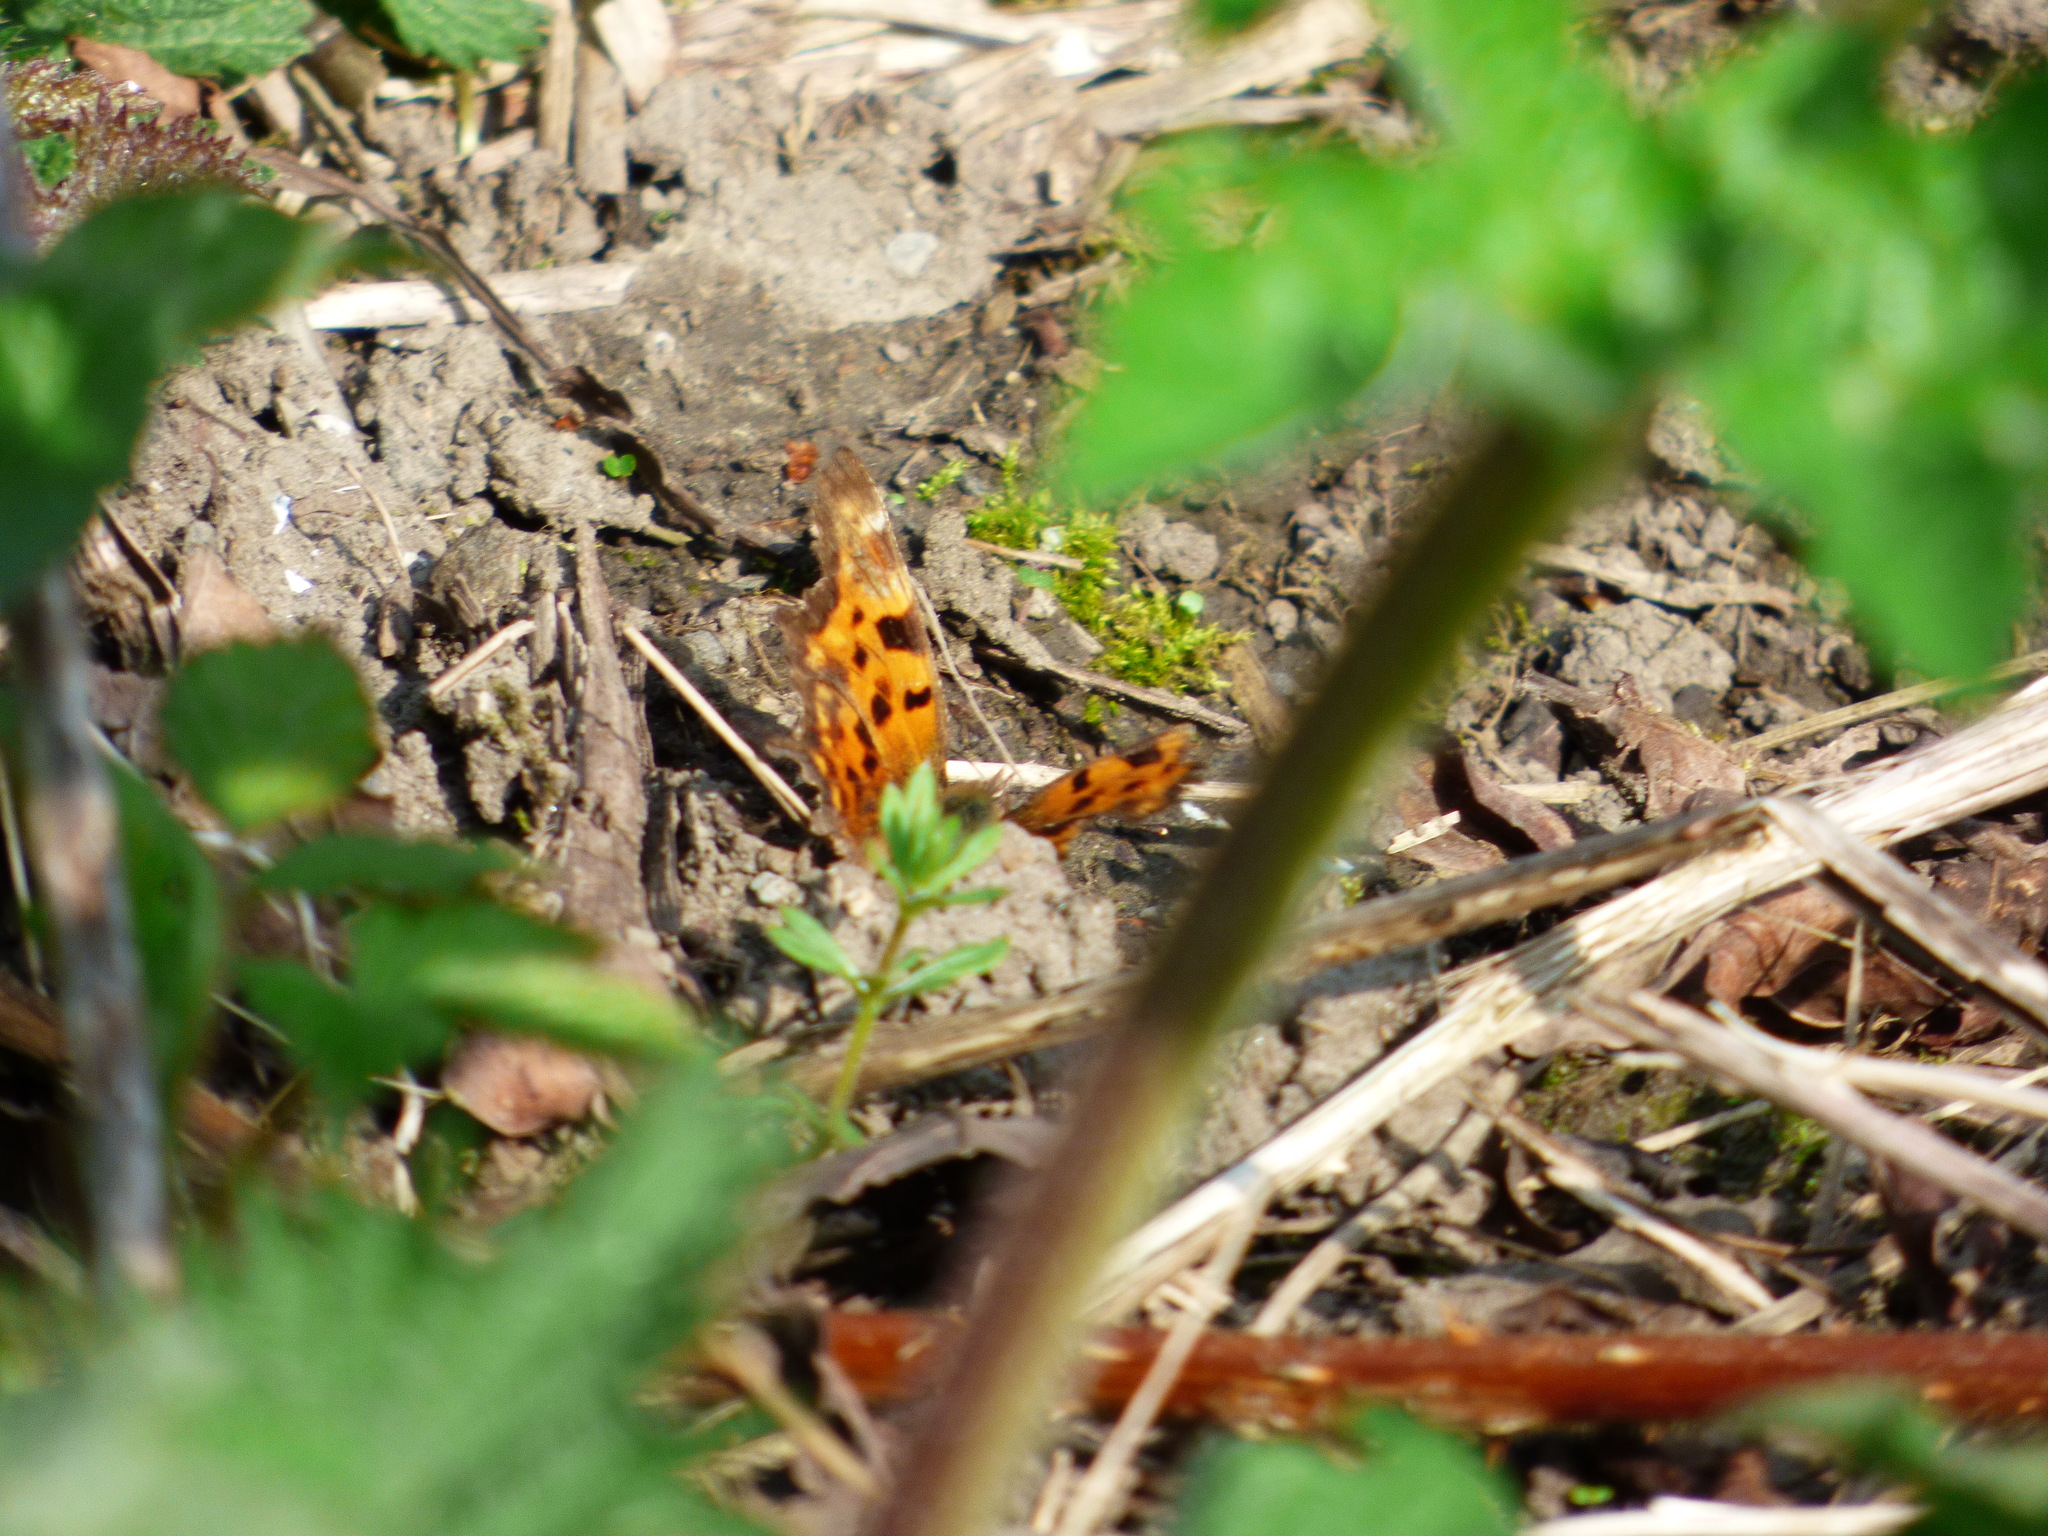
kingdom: Animalia
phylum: Arthropoda
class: Insecta
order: Lepidoptera
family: Nymphalidae
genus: Polygonia
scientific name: Polygonia c-album
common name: Comma
